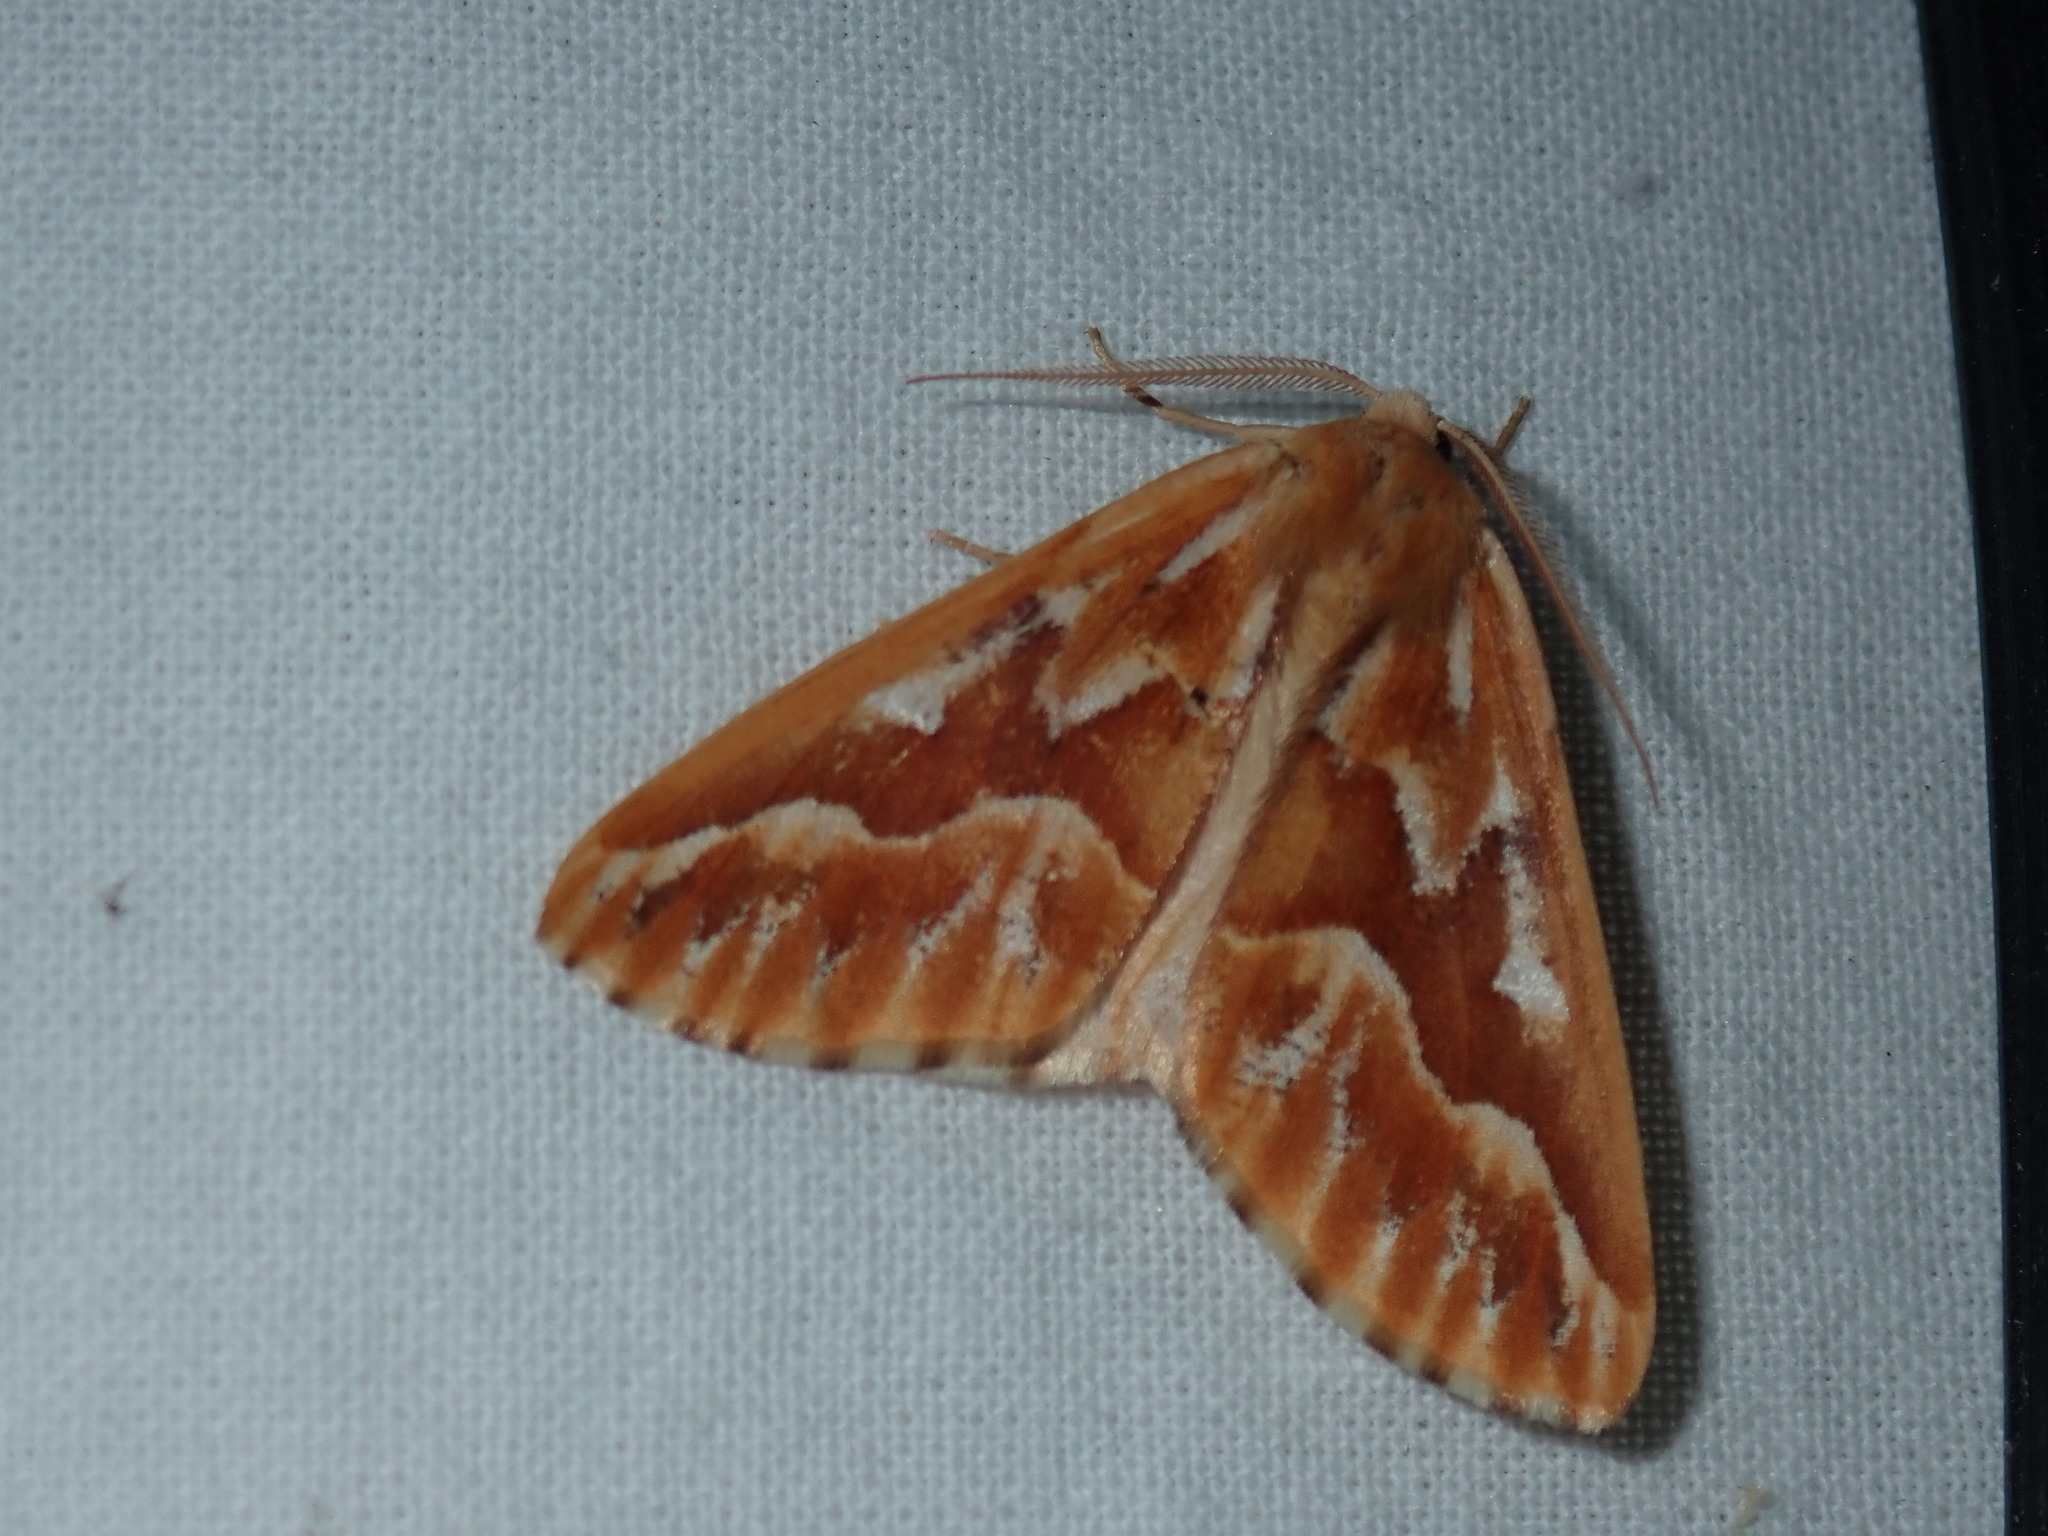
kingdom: Animalia
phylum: Arthropoda
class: Insecta
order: Lepidoptera
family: Geometridae
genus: Caripeta
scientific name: Caripeta piniata
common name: Northern pine looper moth
